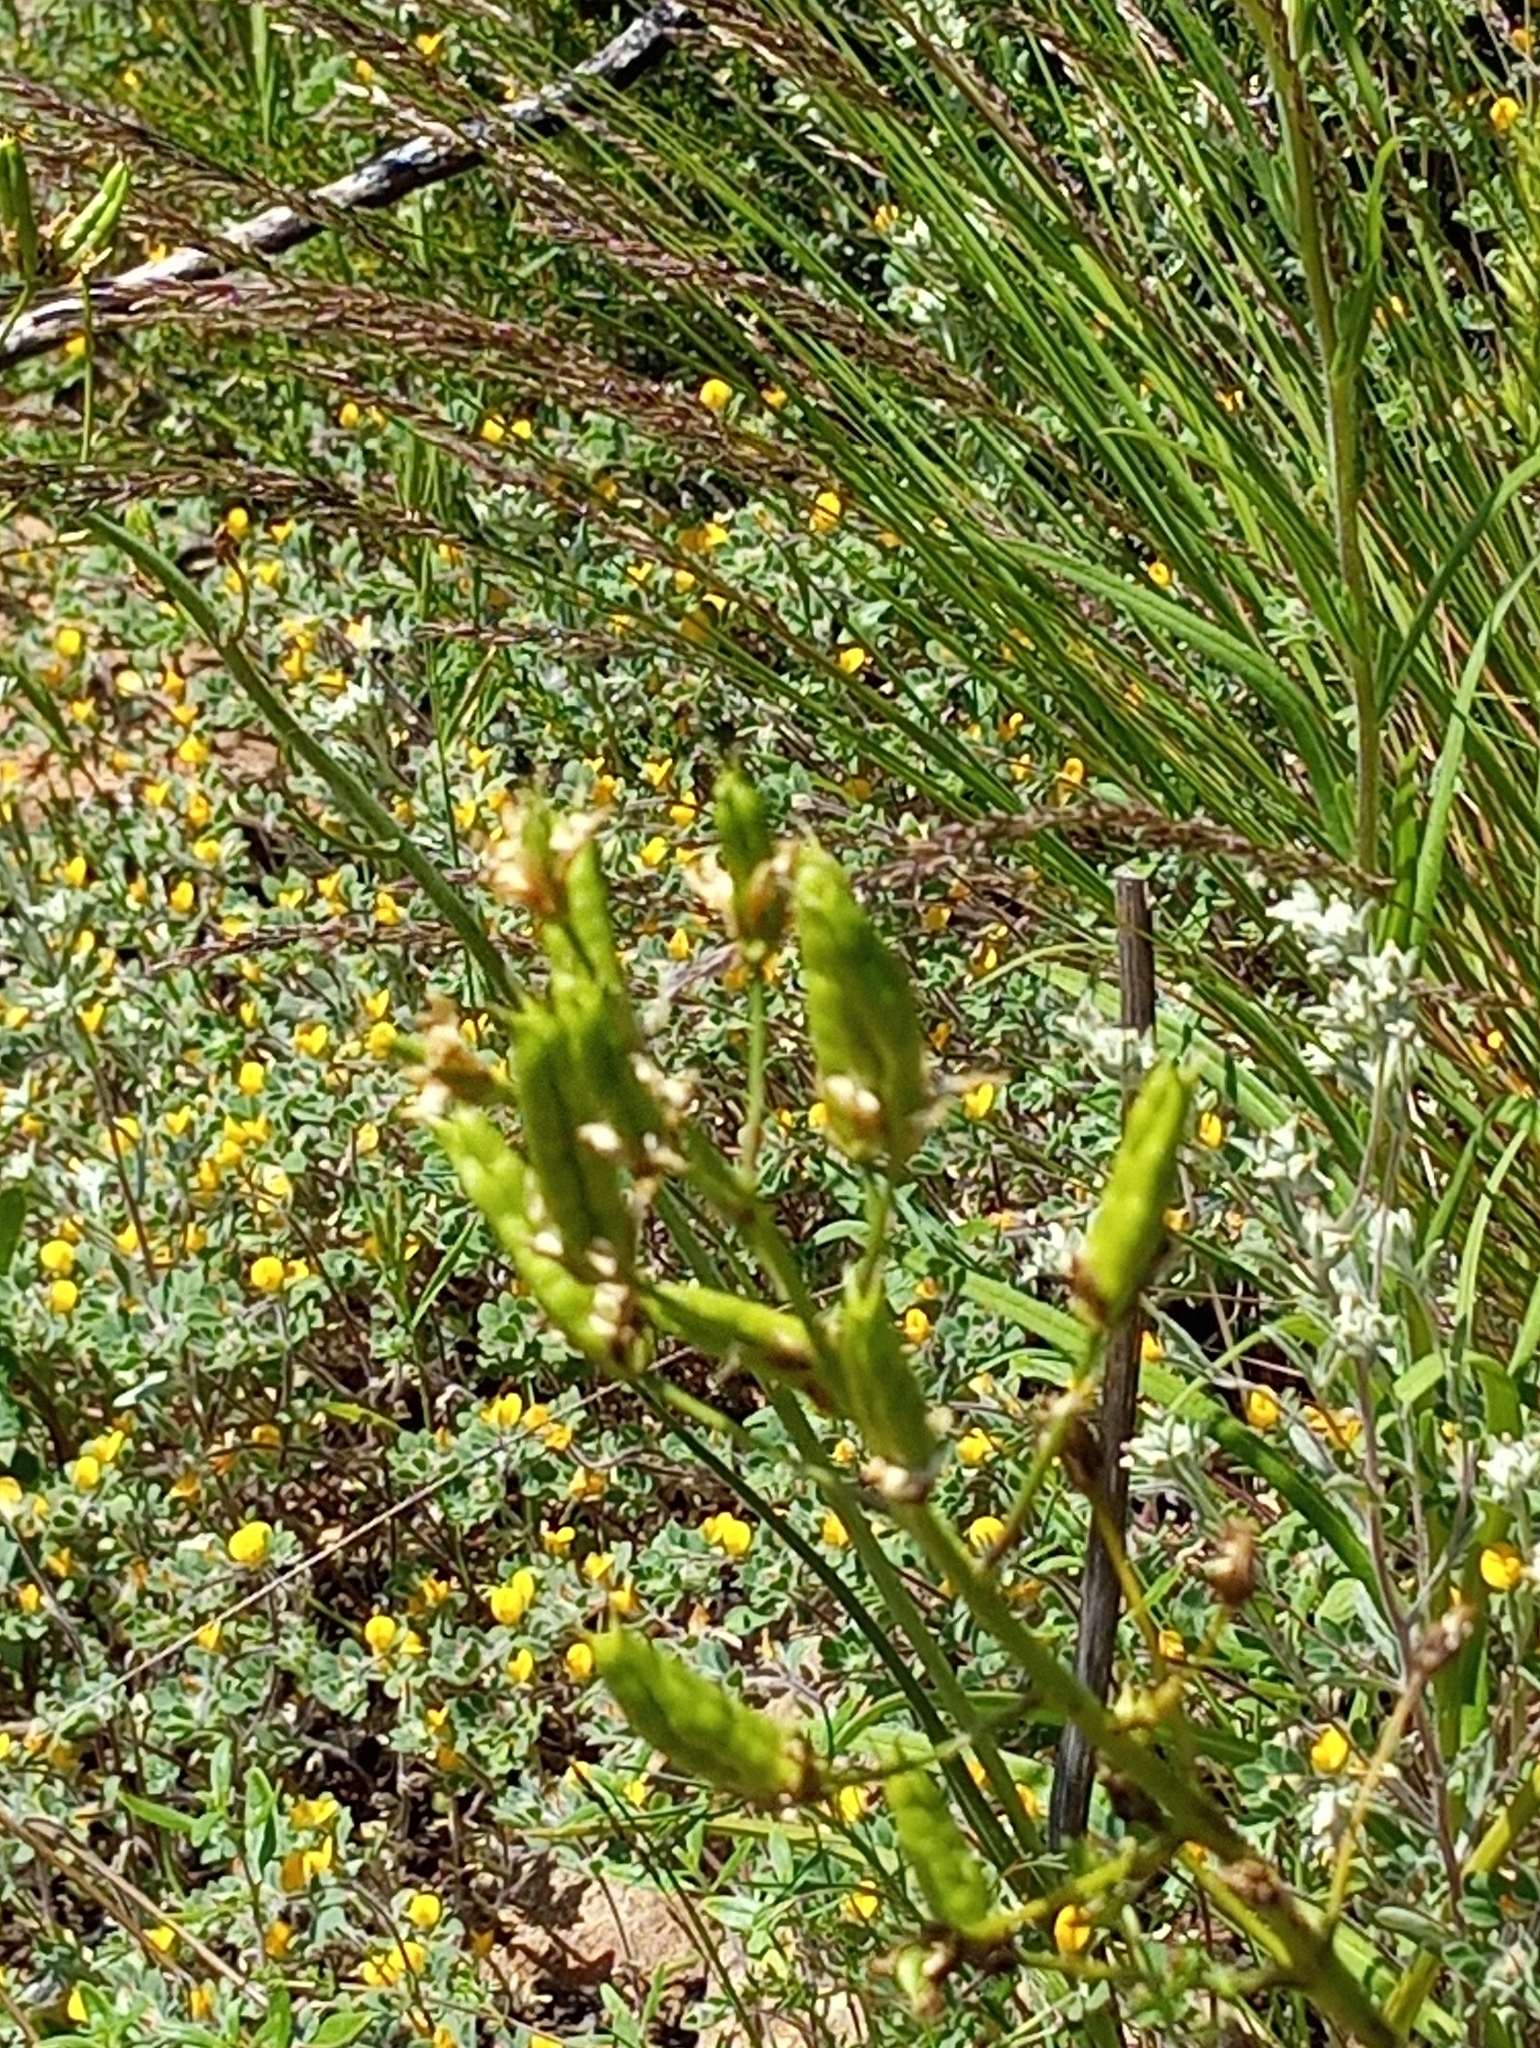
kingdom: Plantae
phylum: Tracheophyta
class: Liliopsida
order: Liliales
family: Melanthiaceae
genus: Toxicoscordion
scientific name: Toxicoscordion fremontii
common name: Fremont's death camas
